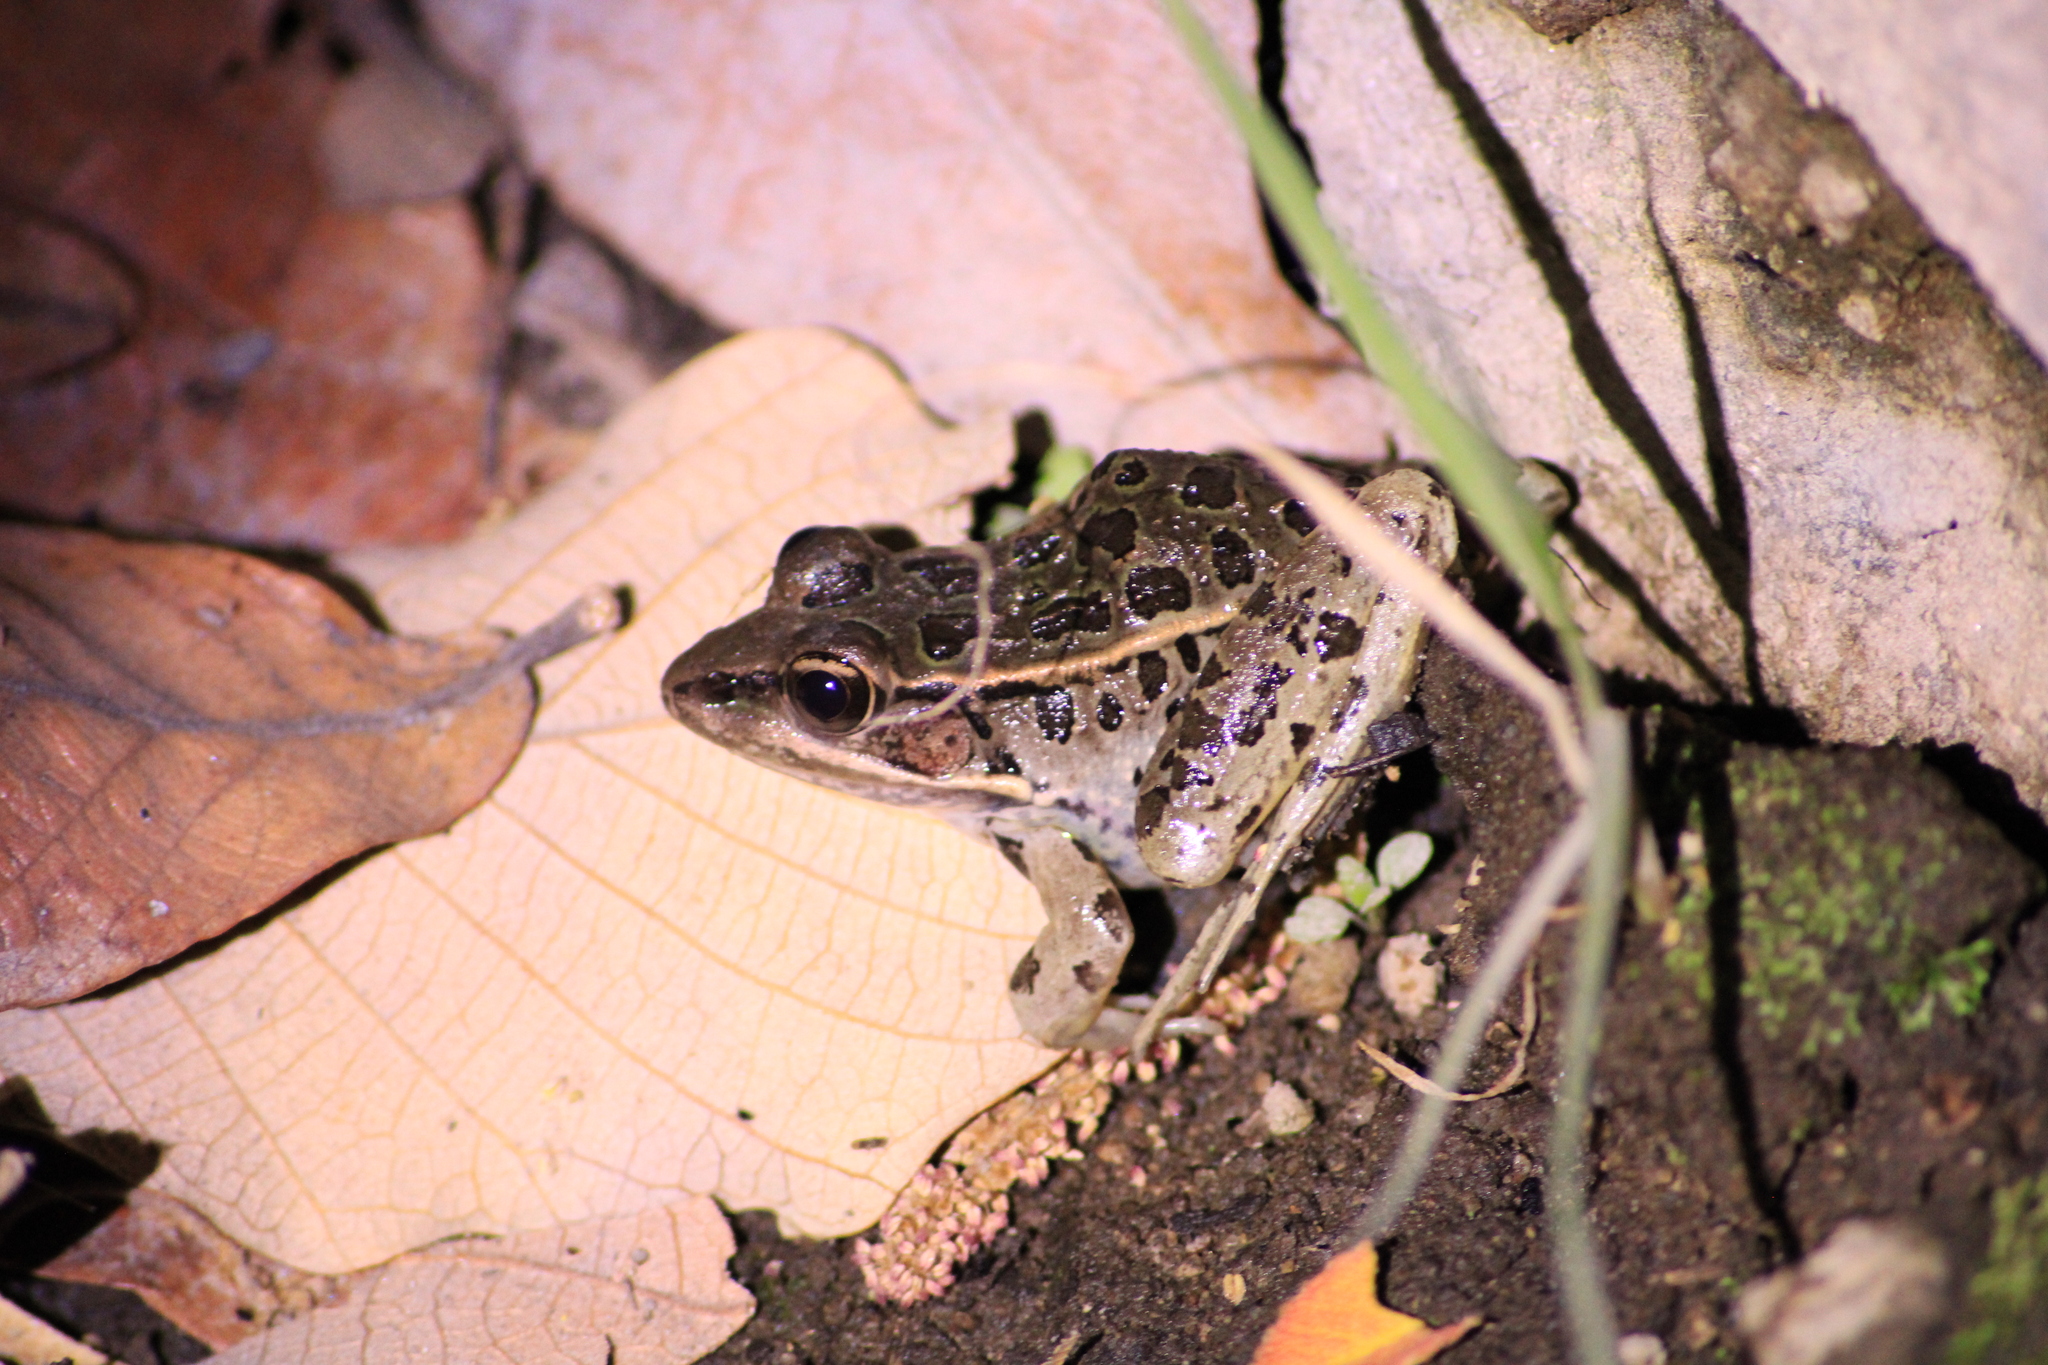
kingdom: Animalia
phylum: Chordata
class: Amphibia
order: Anura
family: Ranidae
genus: Lithobates
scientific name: Lithobates neovolcanicus
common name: Transverse volcanic leopard frog
